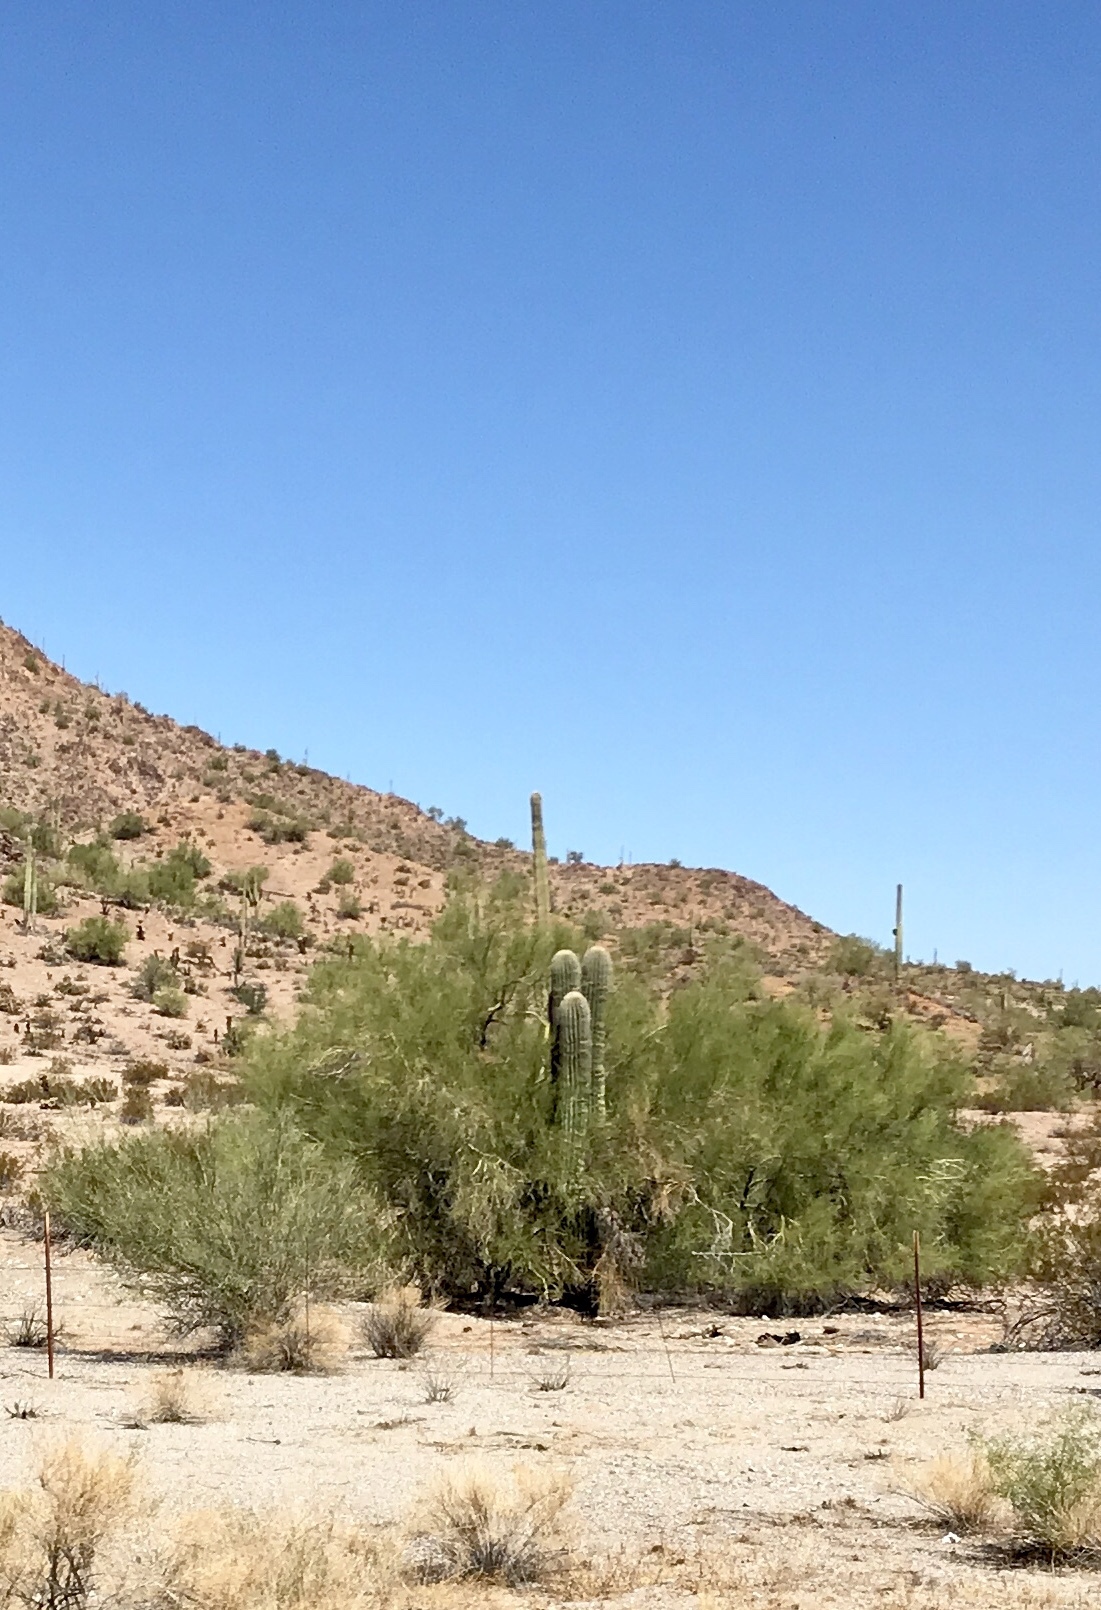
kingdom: Plantae
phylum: Tracheophyta
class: Magnoliopsida
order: Fabales
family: Fabaceae
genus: Parkinsonia
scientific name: Parkinsonia florida
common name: Blue paloverde
